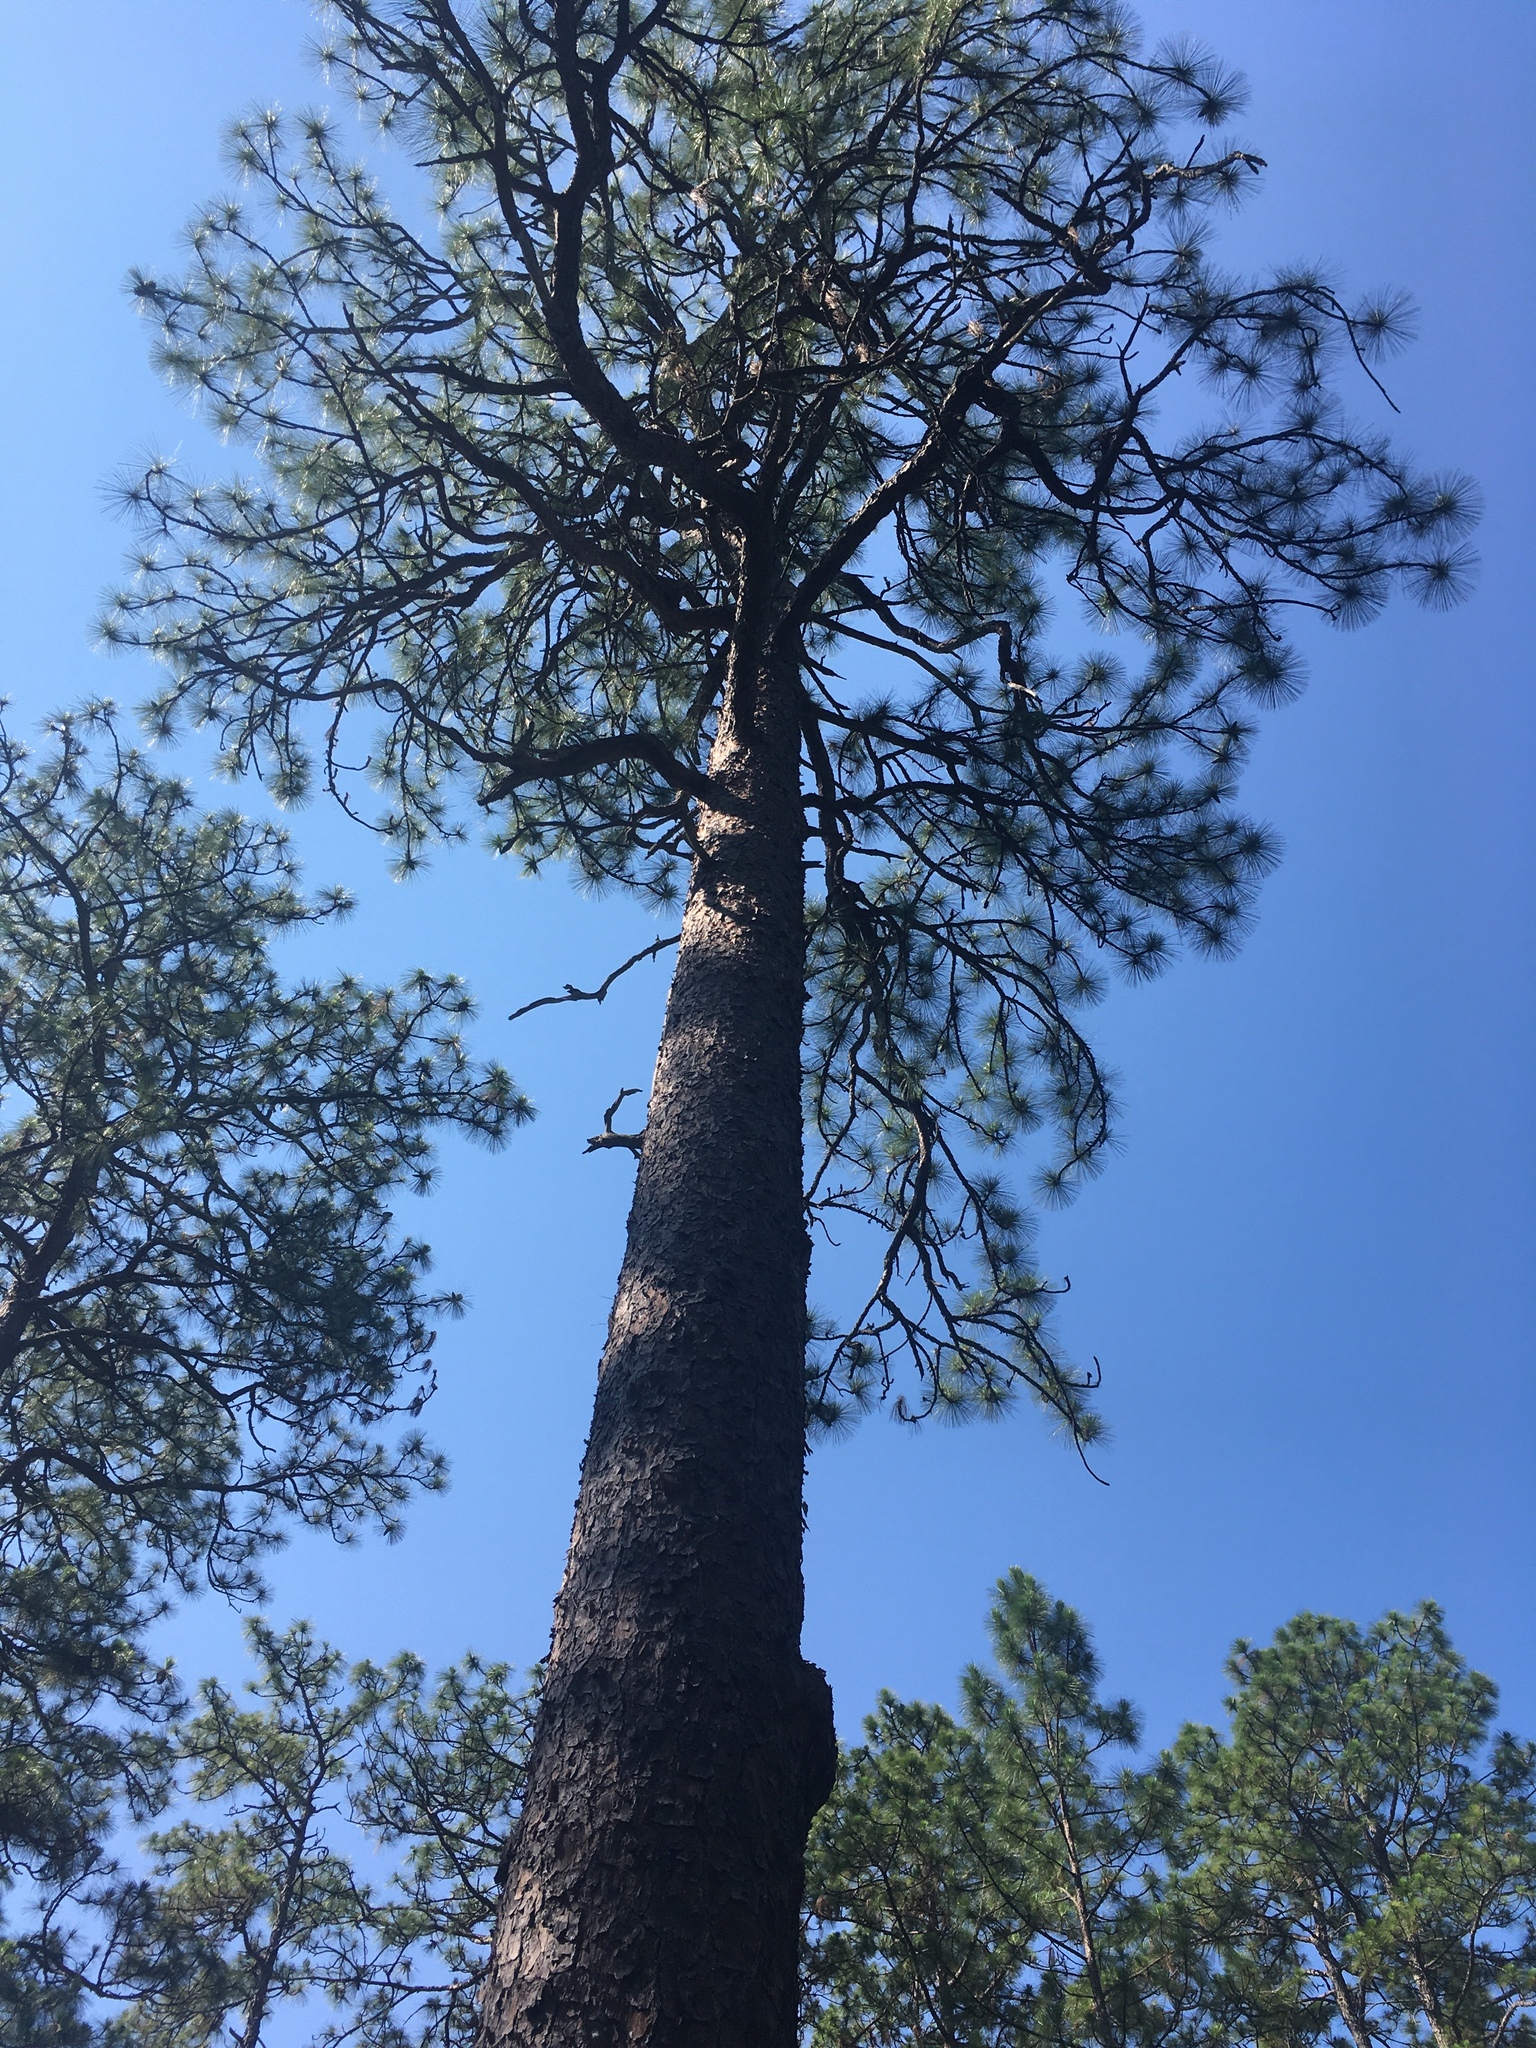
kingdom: Plantae
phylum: Tracheophyta
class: Pinopsida
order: Pinales
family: Pinaceae
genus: Pinus
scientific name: Pinus palustris
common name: Longleaf pine
